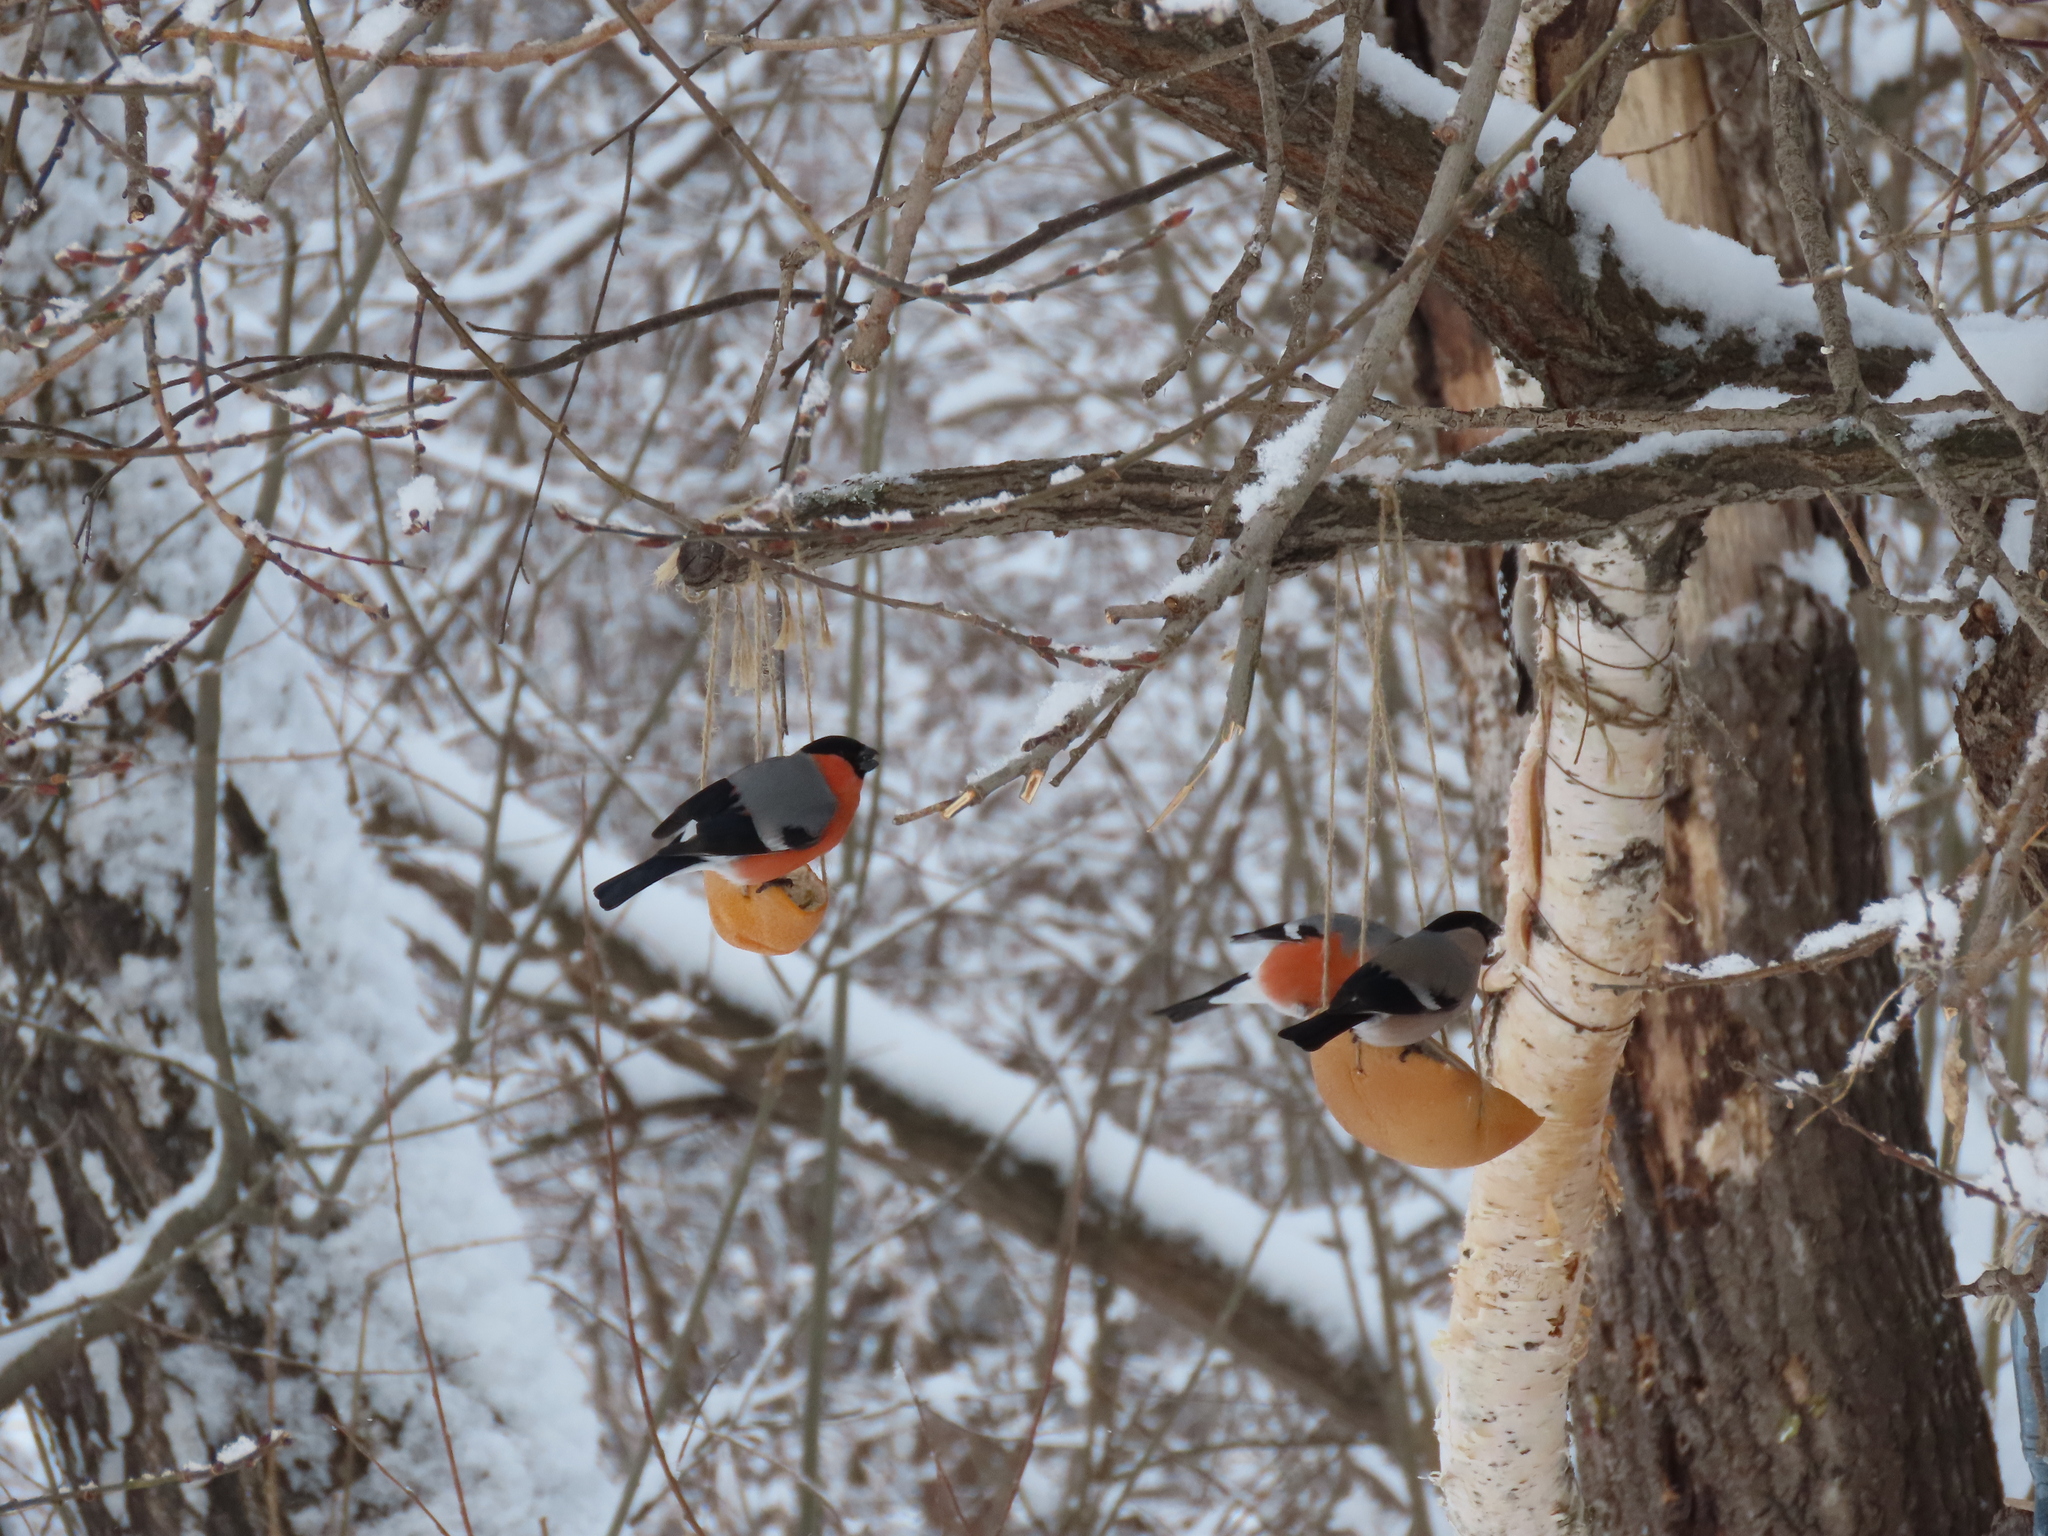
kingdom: Animalia
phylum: Chordata
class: Aves
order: Passeriformes
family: Fringillidae
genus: Pyrrhula
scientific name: Pyrrhula pyrrhula
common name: Eurasian bullfinch
